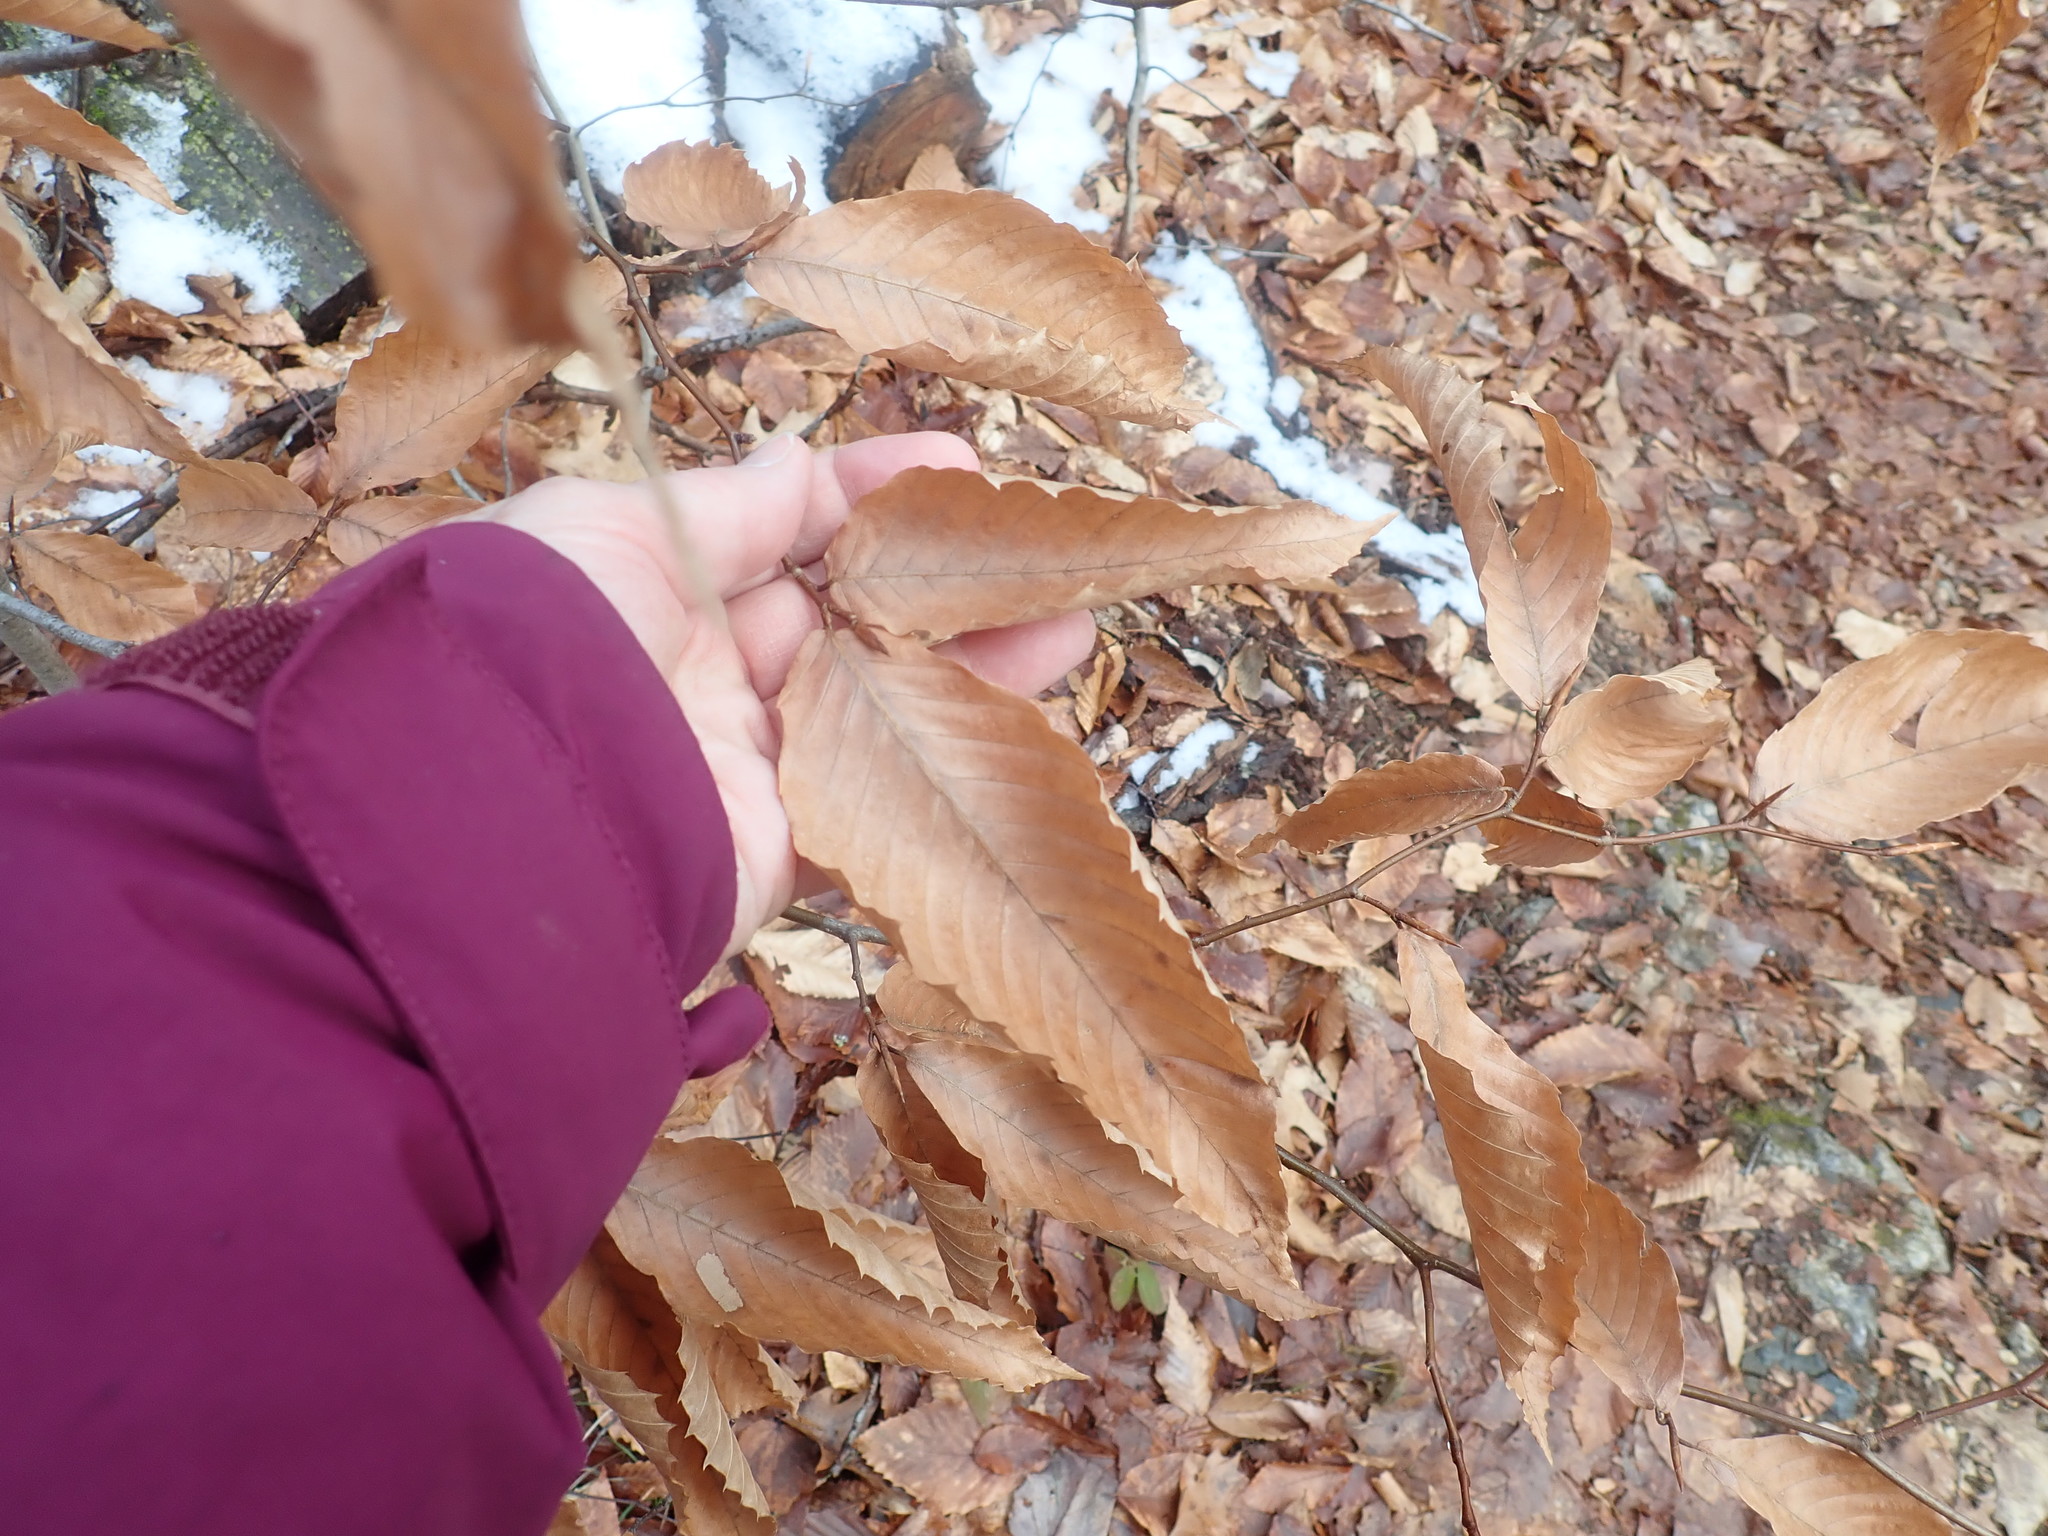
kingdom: Plantae
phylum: Tracheophyta
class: Magnoliopsida
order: Fagales
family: Fagaceae
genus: Fagus
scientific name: Fagus grandifolia
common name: American beech
